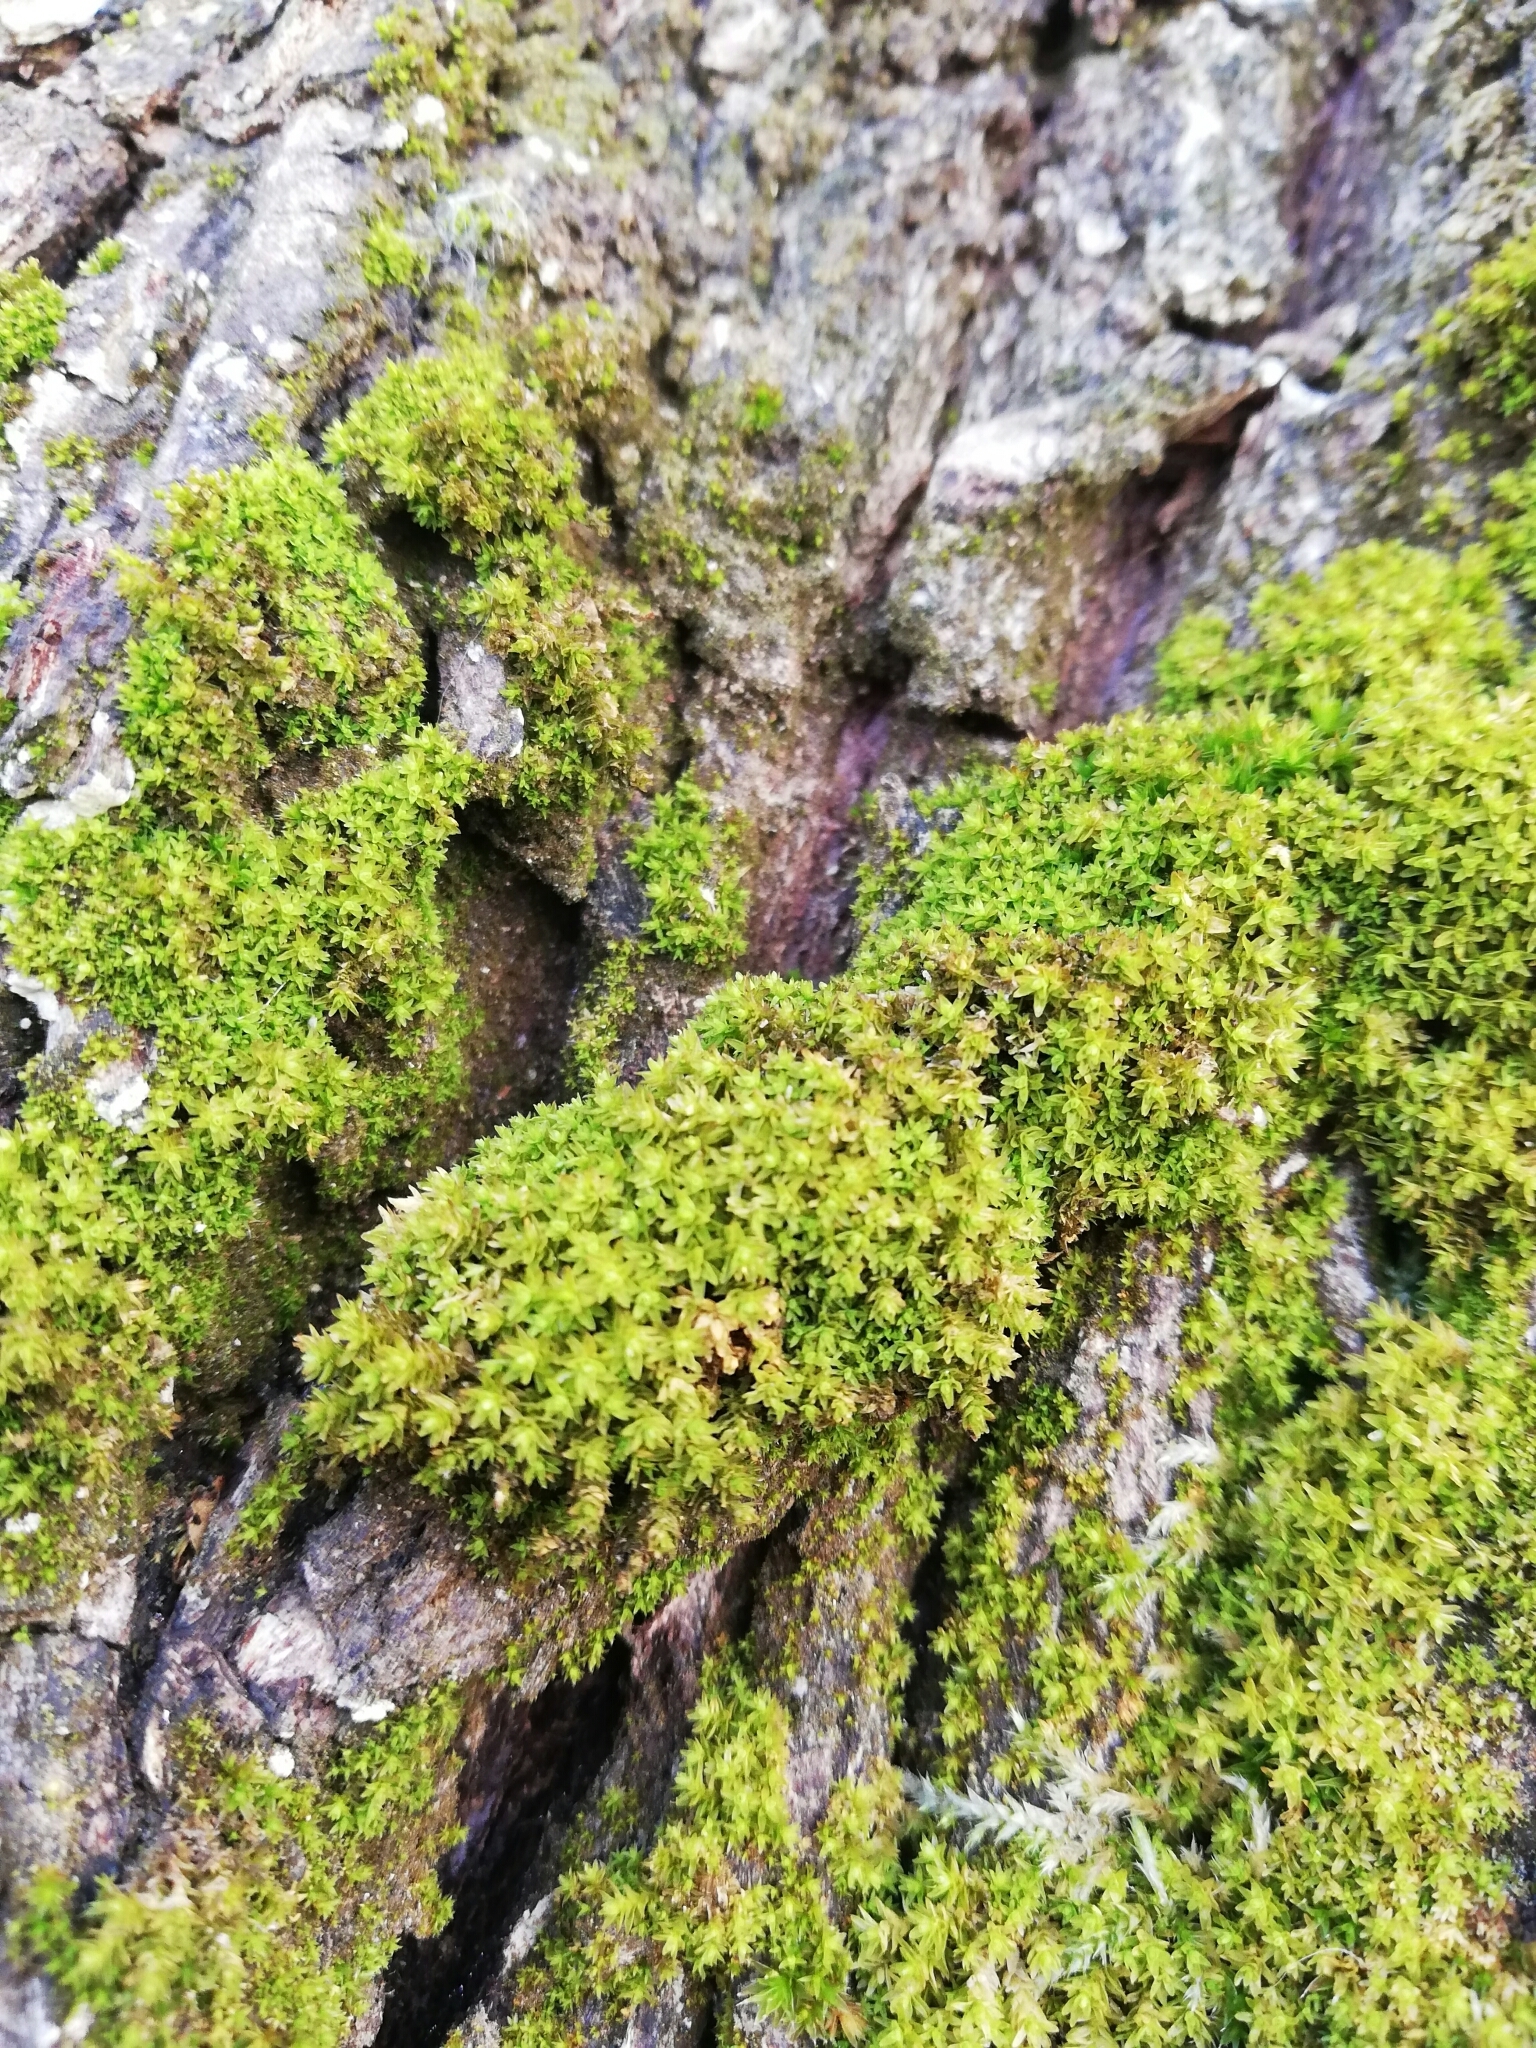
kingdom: Plantae
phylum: Bryophyta
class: Bryopsida
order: Orthotrichales
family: Orthotrichaceae
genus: Nyholmiella
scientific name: Nyholmiella obtusifolia
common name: Blunt-leaved bristle-moss
